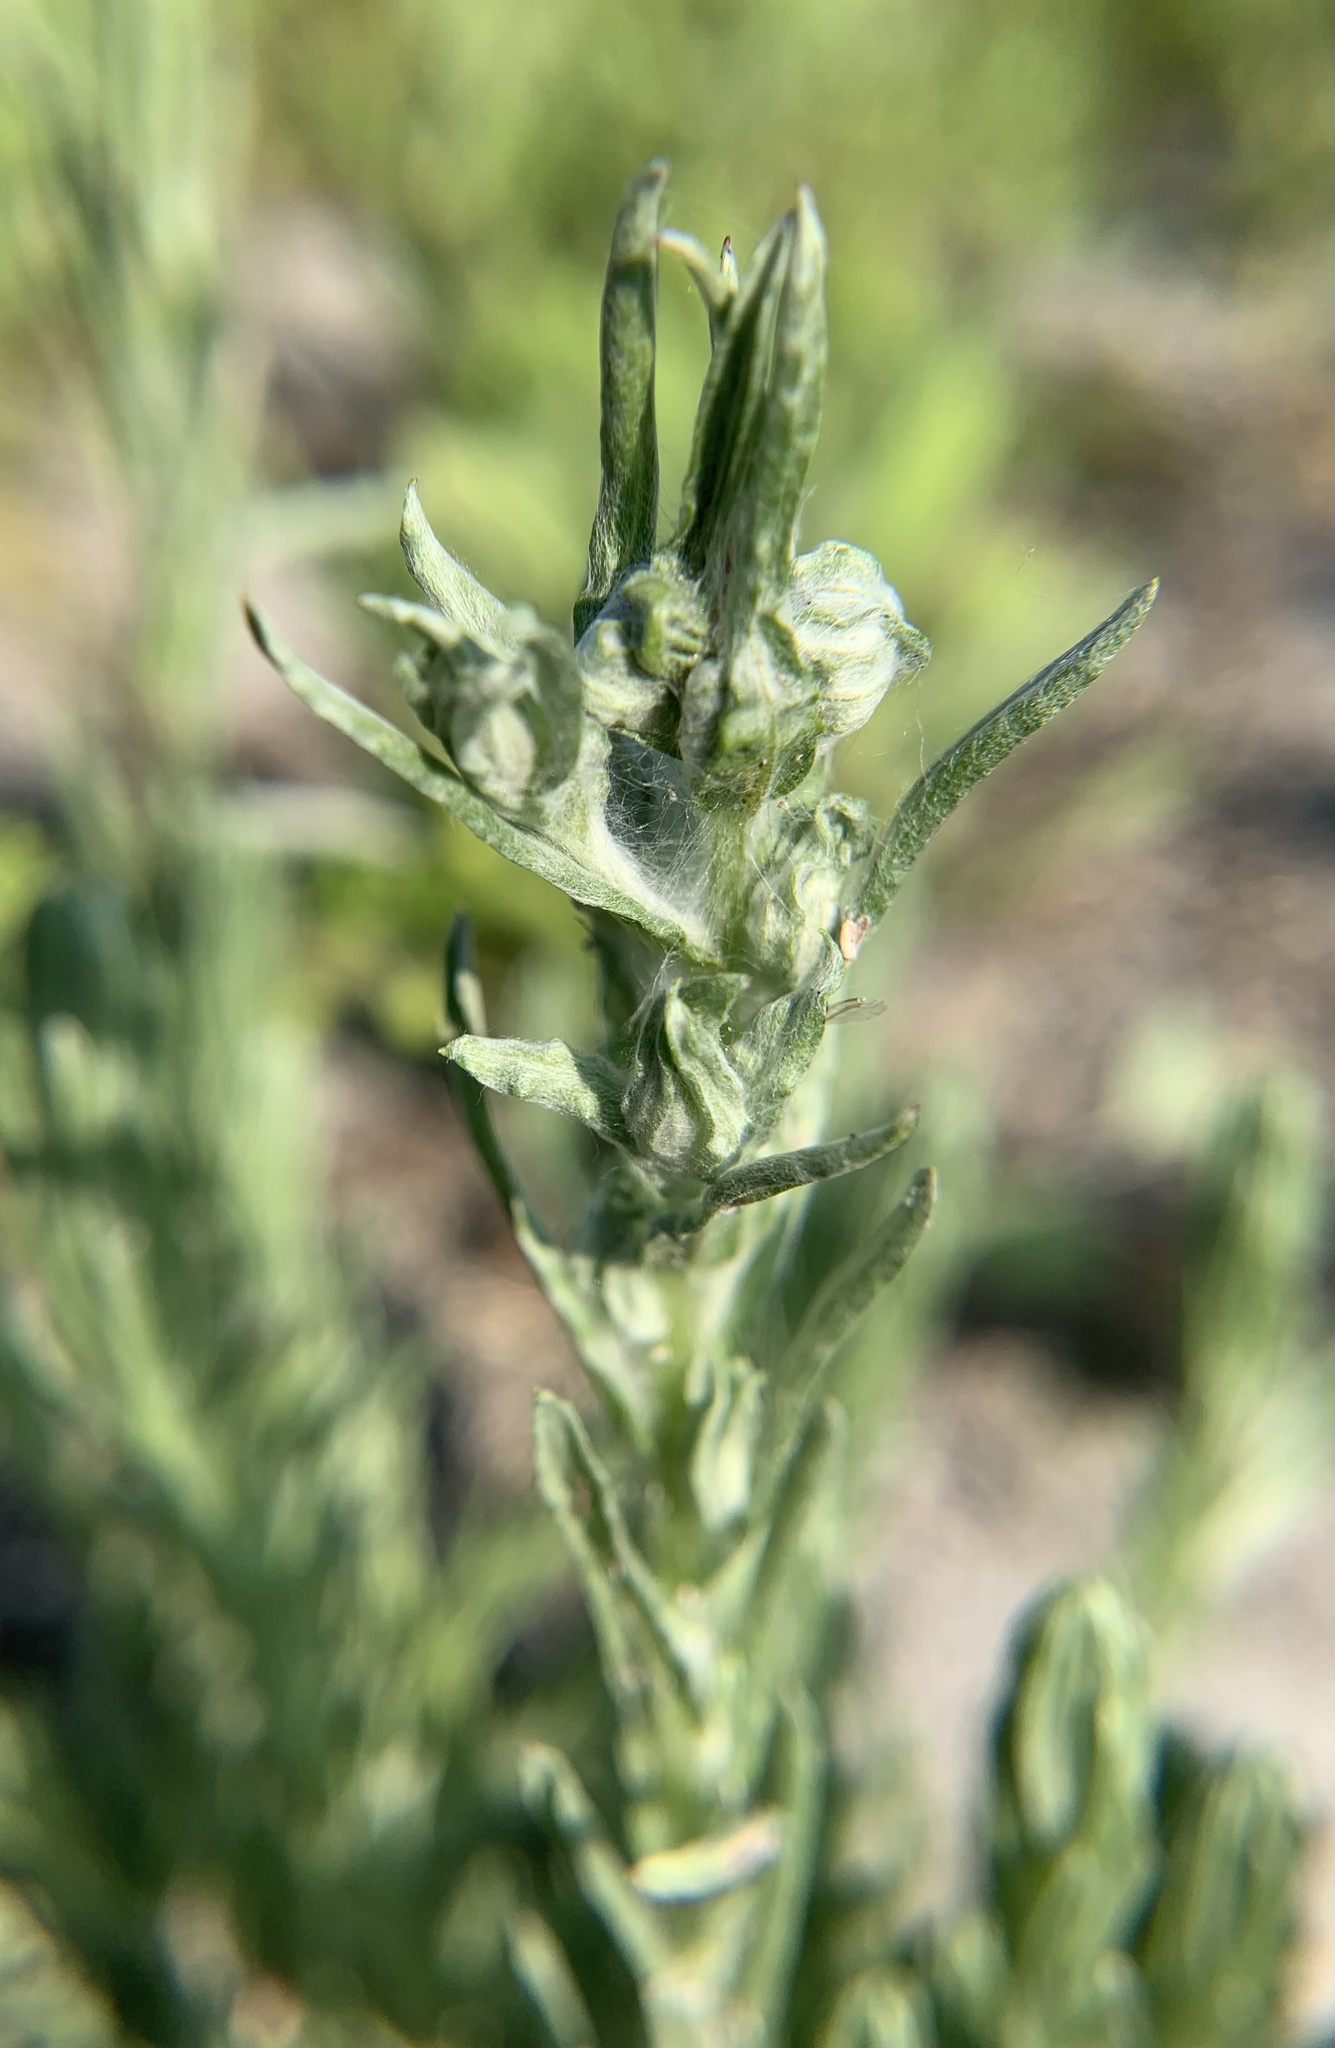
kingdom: Plantae
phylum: Tracheophyta
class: Magnoliopsida
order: Asterales
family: Asteraceae
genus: Filago
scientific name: Filago germanica
